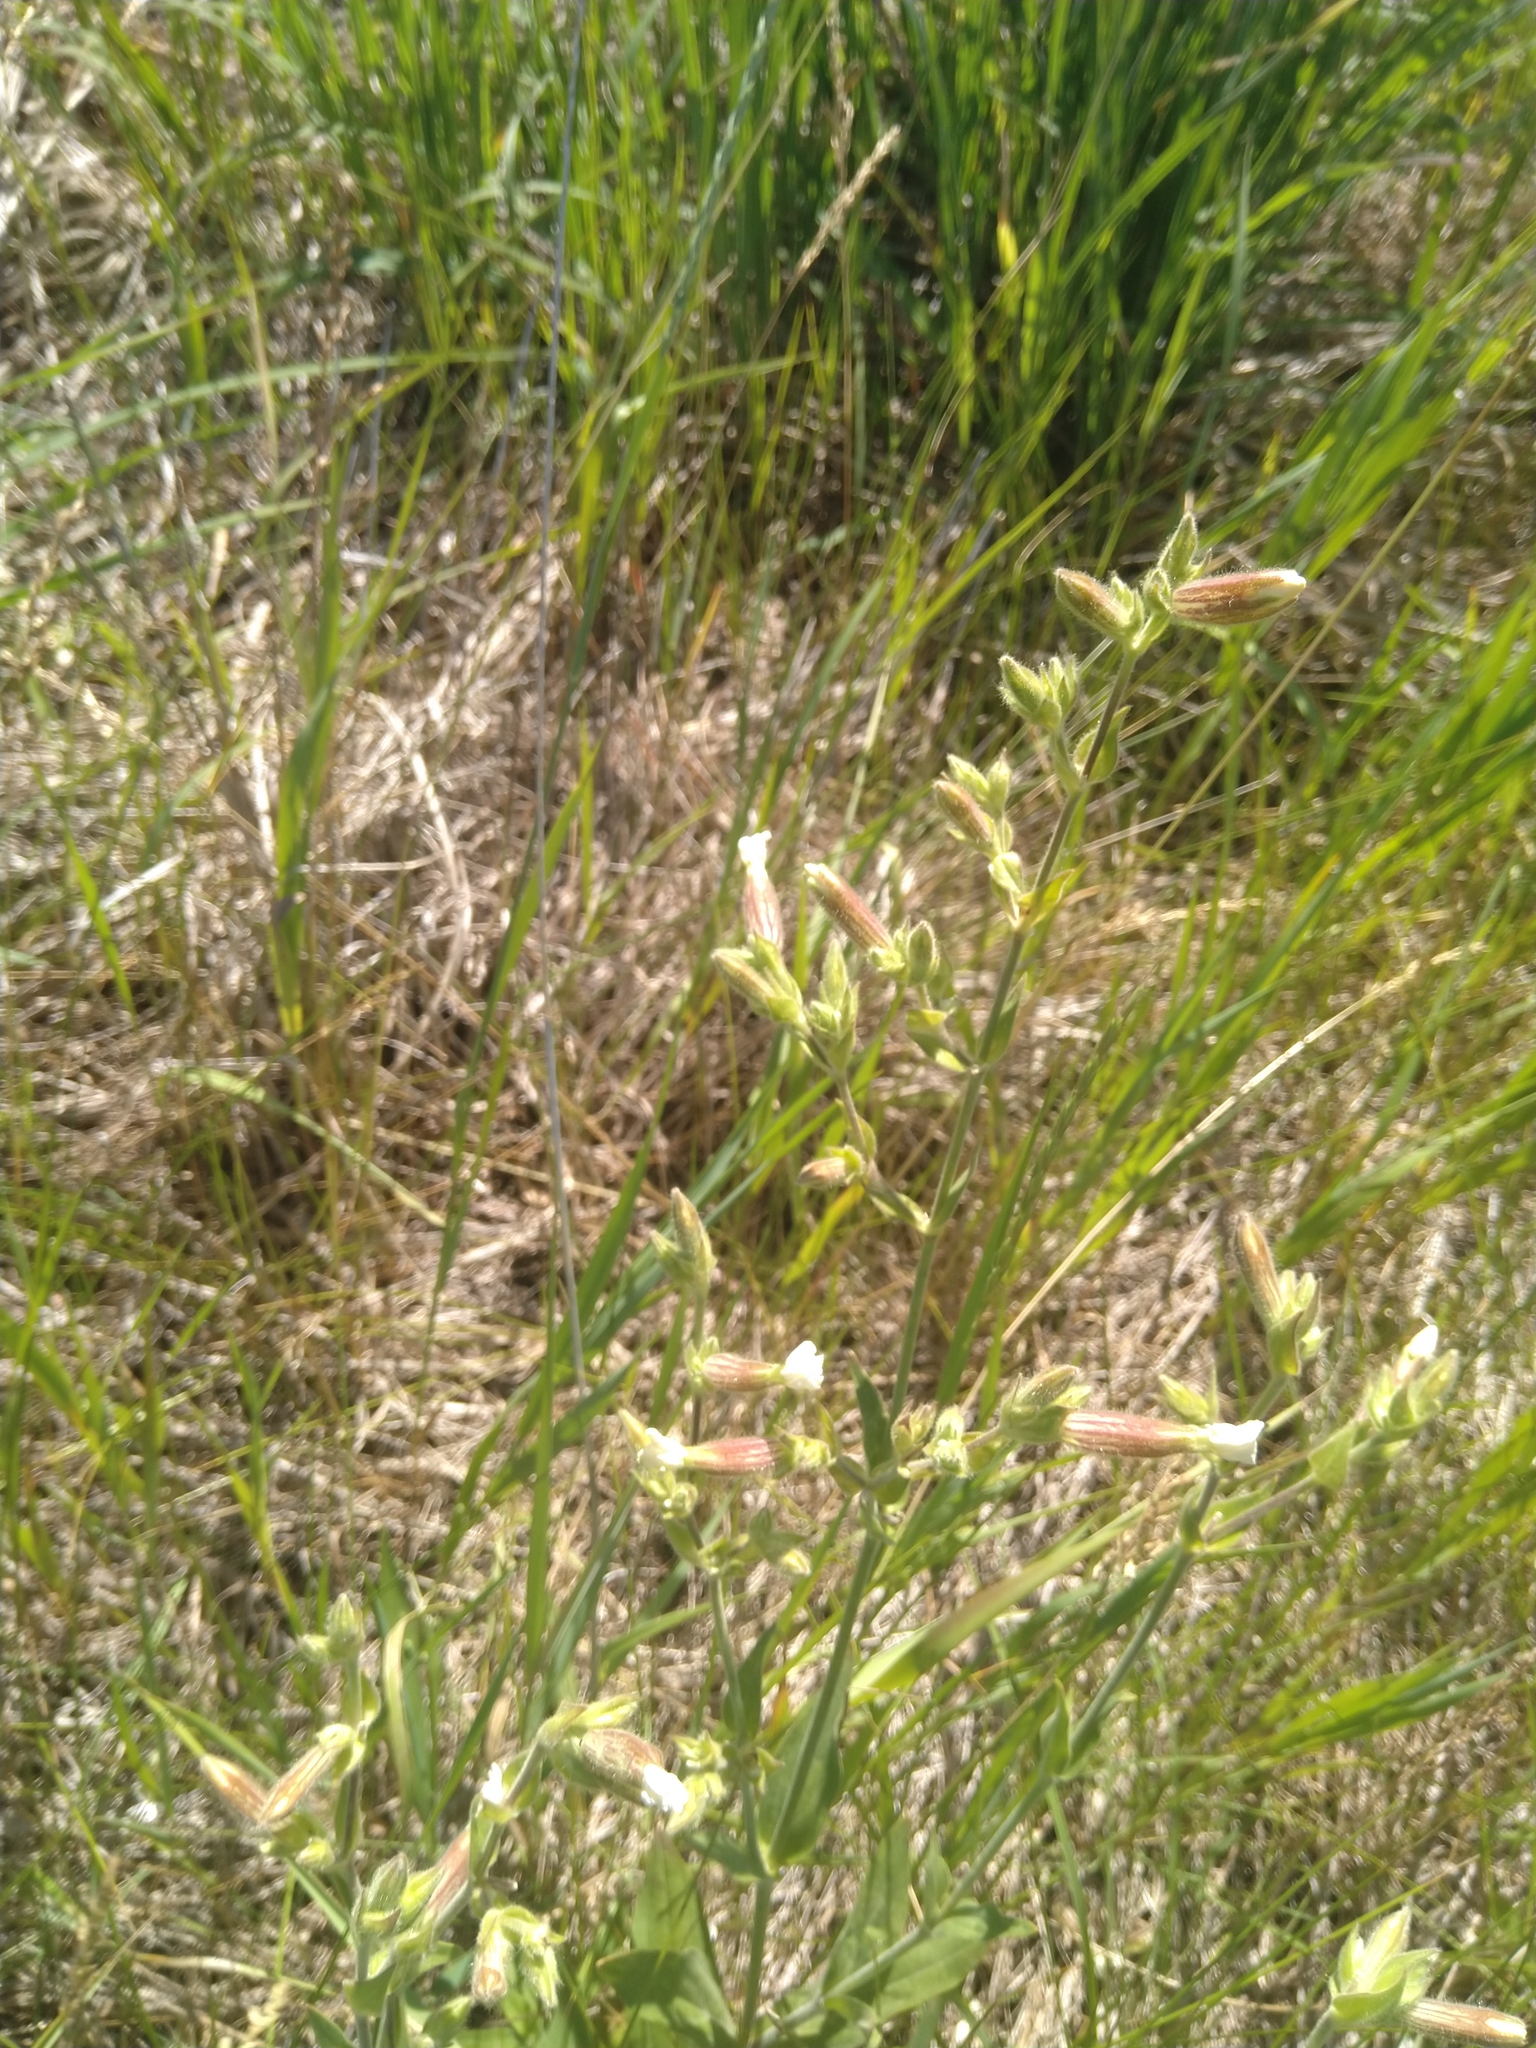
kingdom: Plantae
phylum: Tracheophyta
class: Magnoliopsida
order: Caryophyllales
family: Caryophyllaceae
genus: Silene
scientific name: Silene latifolia
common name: White campion
